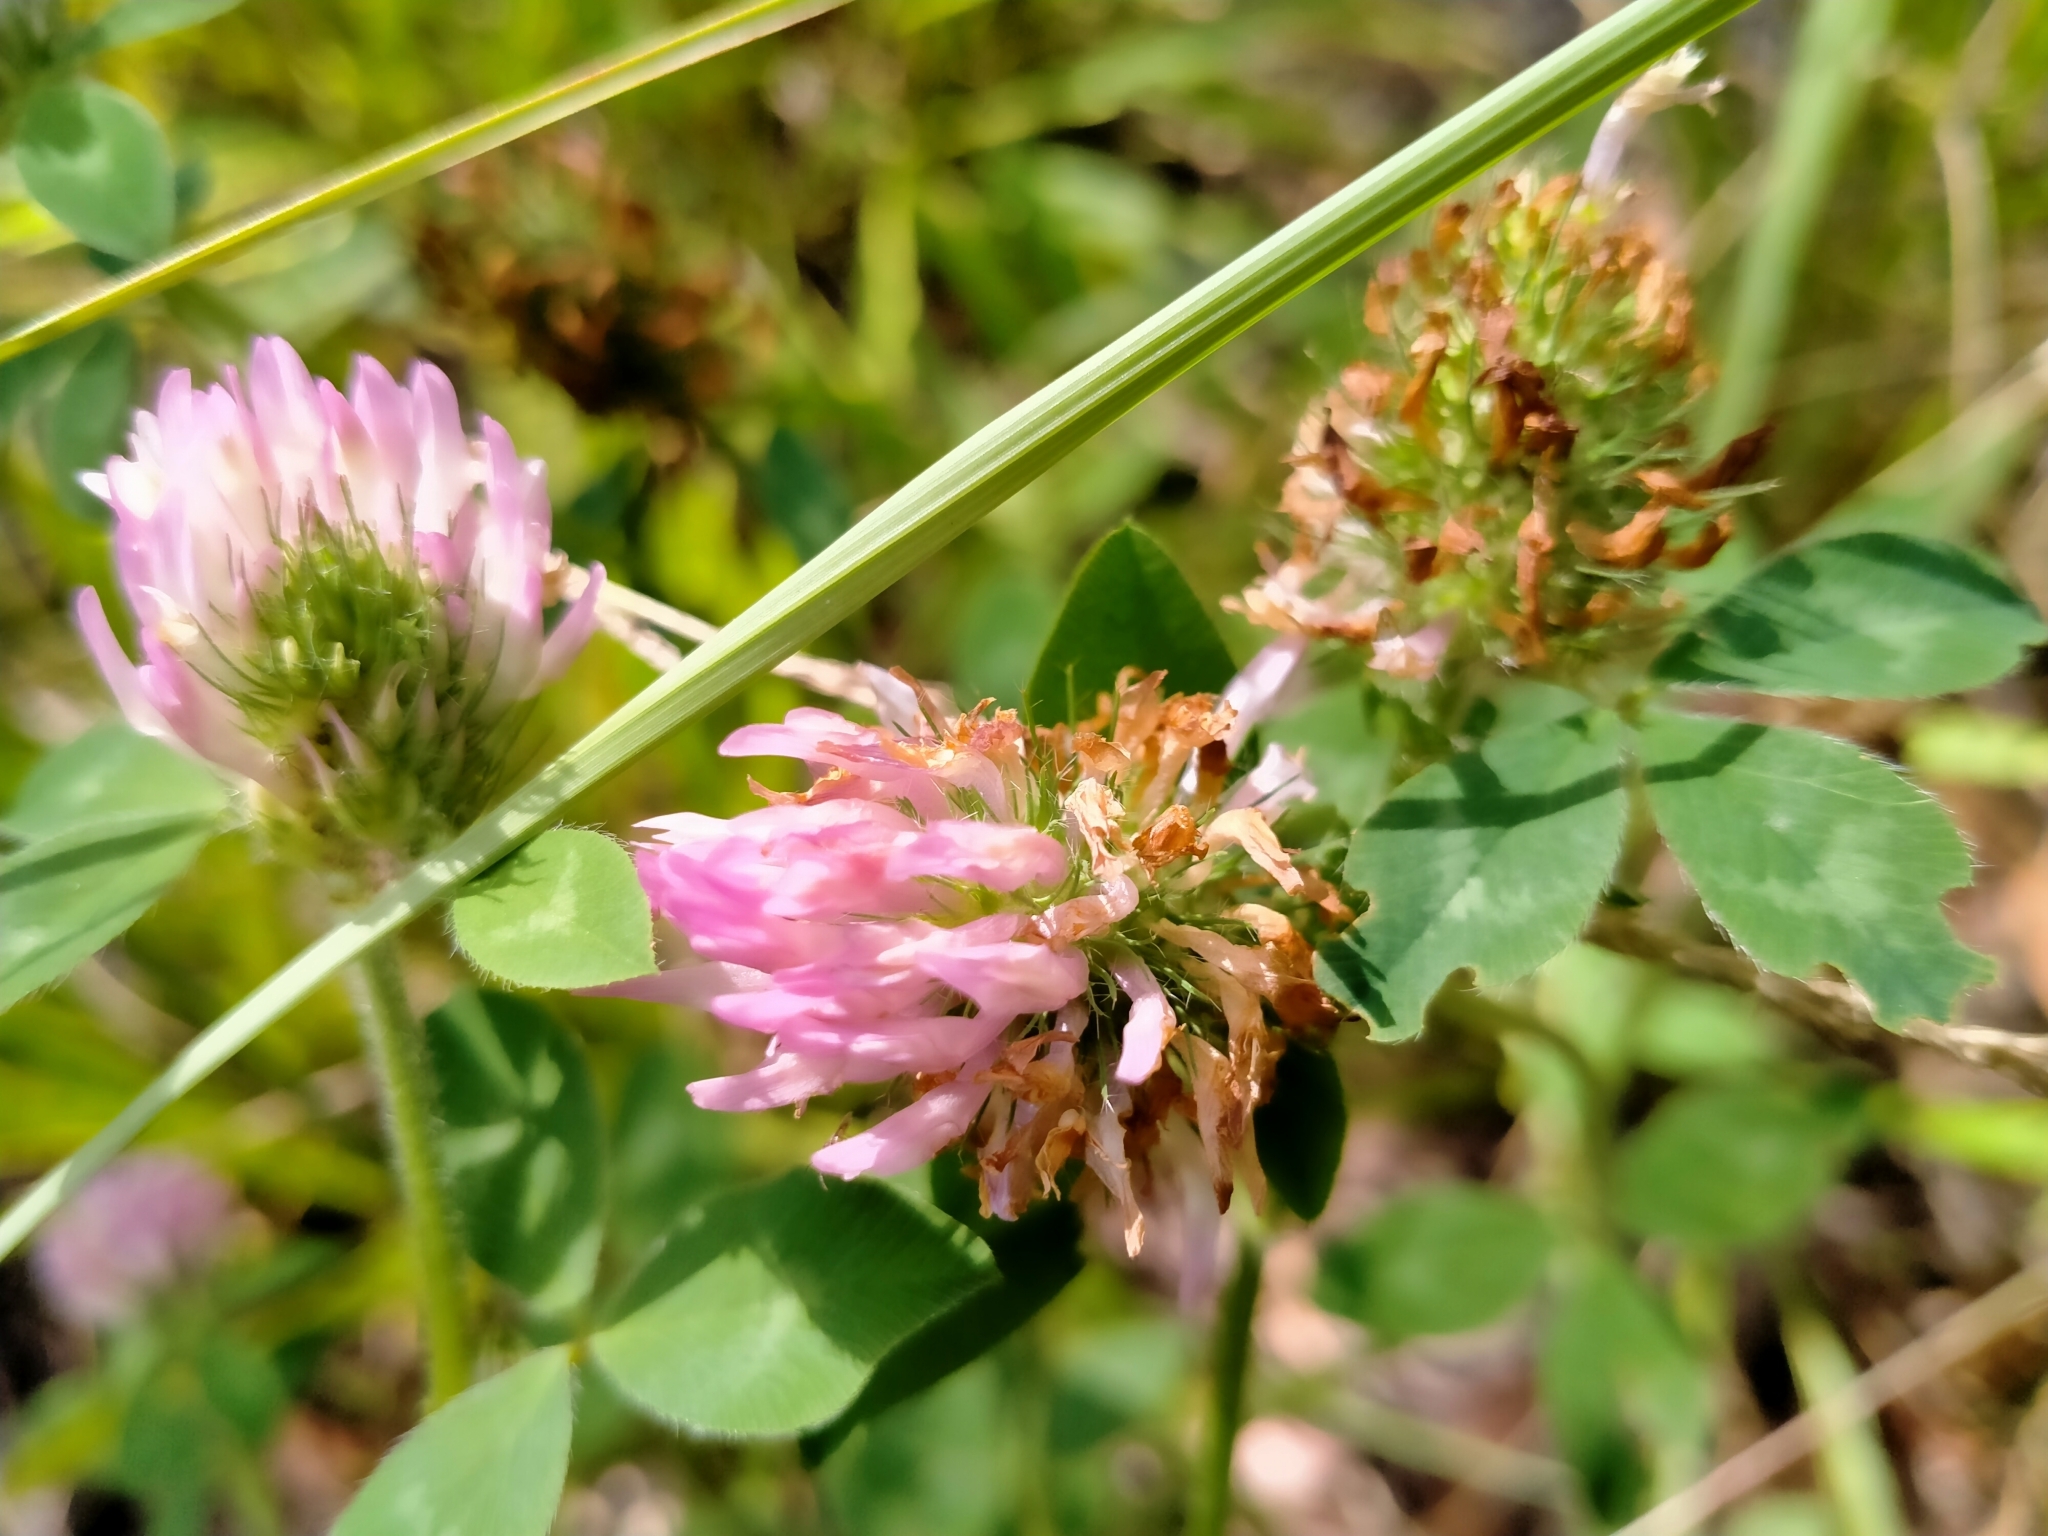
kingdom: Plantae
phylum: Tracheophyta
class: Magnoliopsida
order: Fabales
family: Fabaceae
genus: Trifolium
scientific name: Trifolium pratense
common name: Red clover
